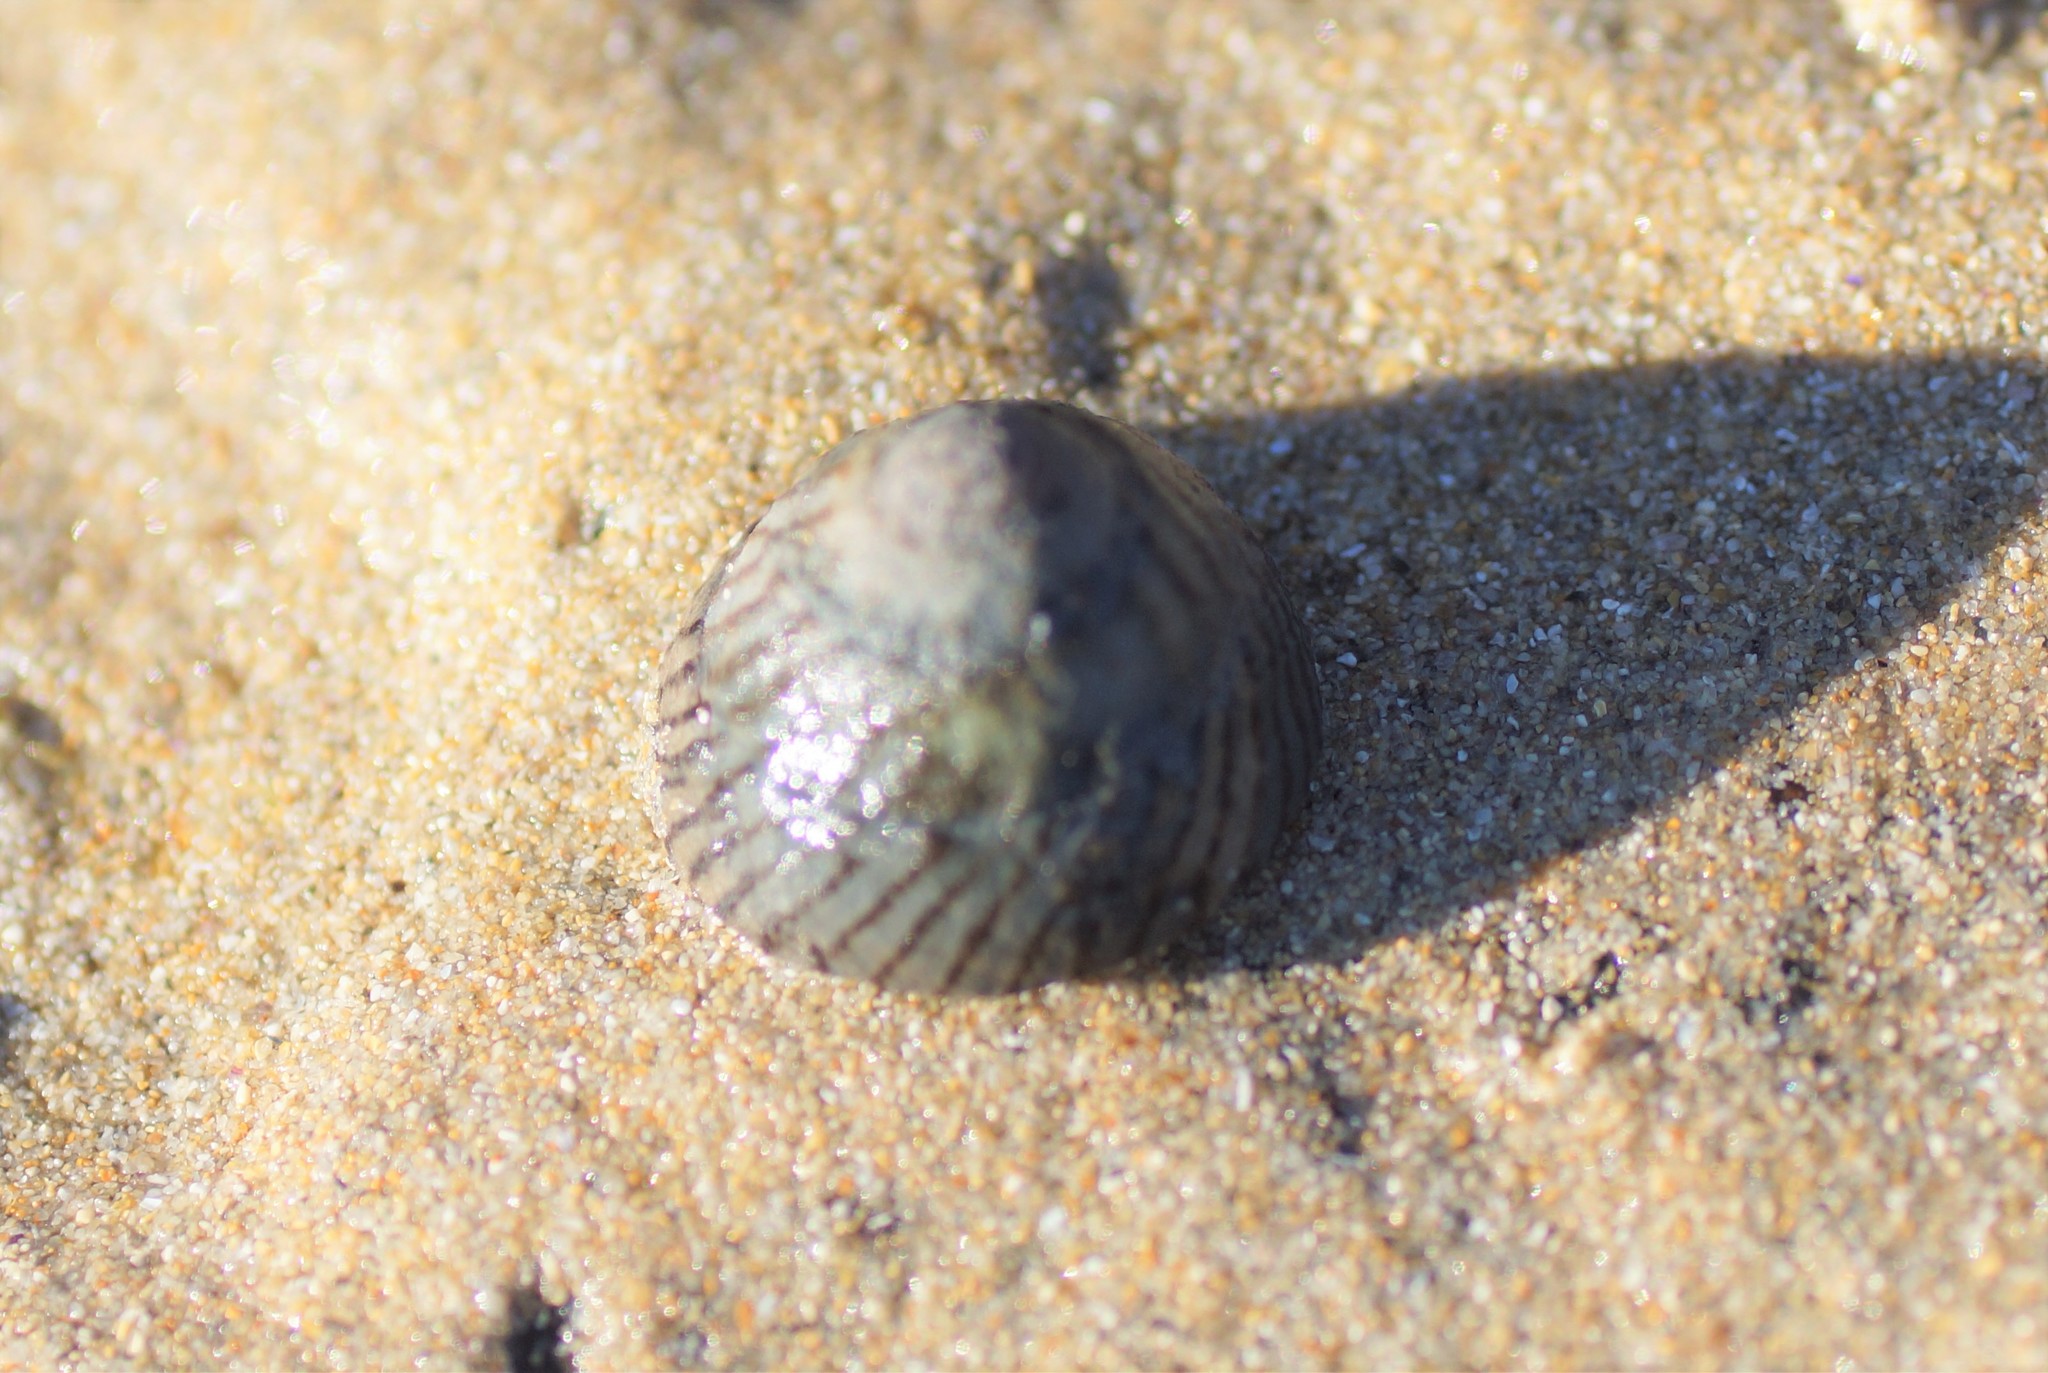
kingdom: Animalia
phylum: Mollusca
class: Gastropoda
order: Littorinimorpha
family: Littorinidae
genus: Bembicium
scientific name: Bembicium nanum
